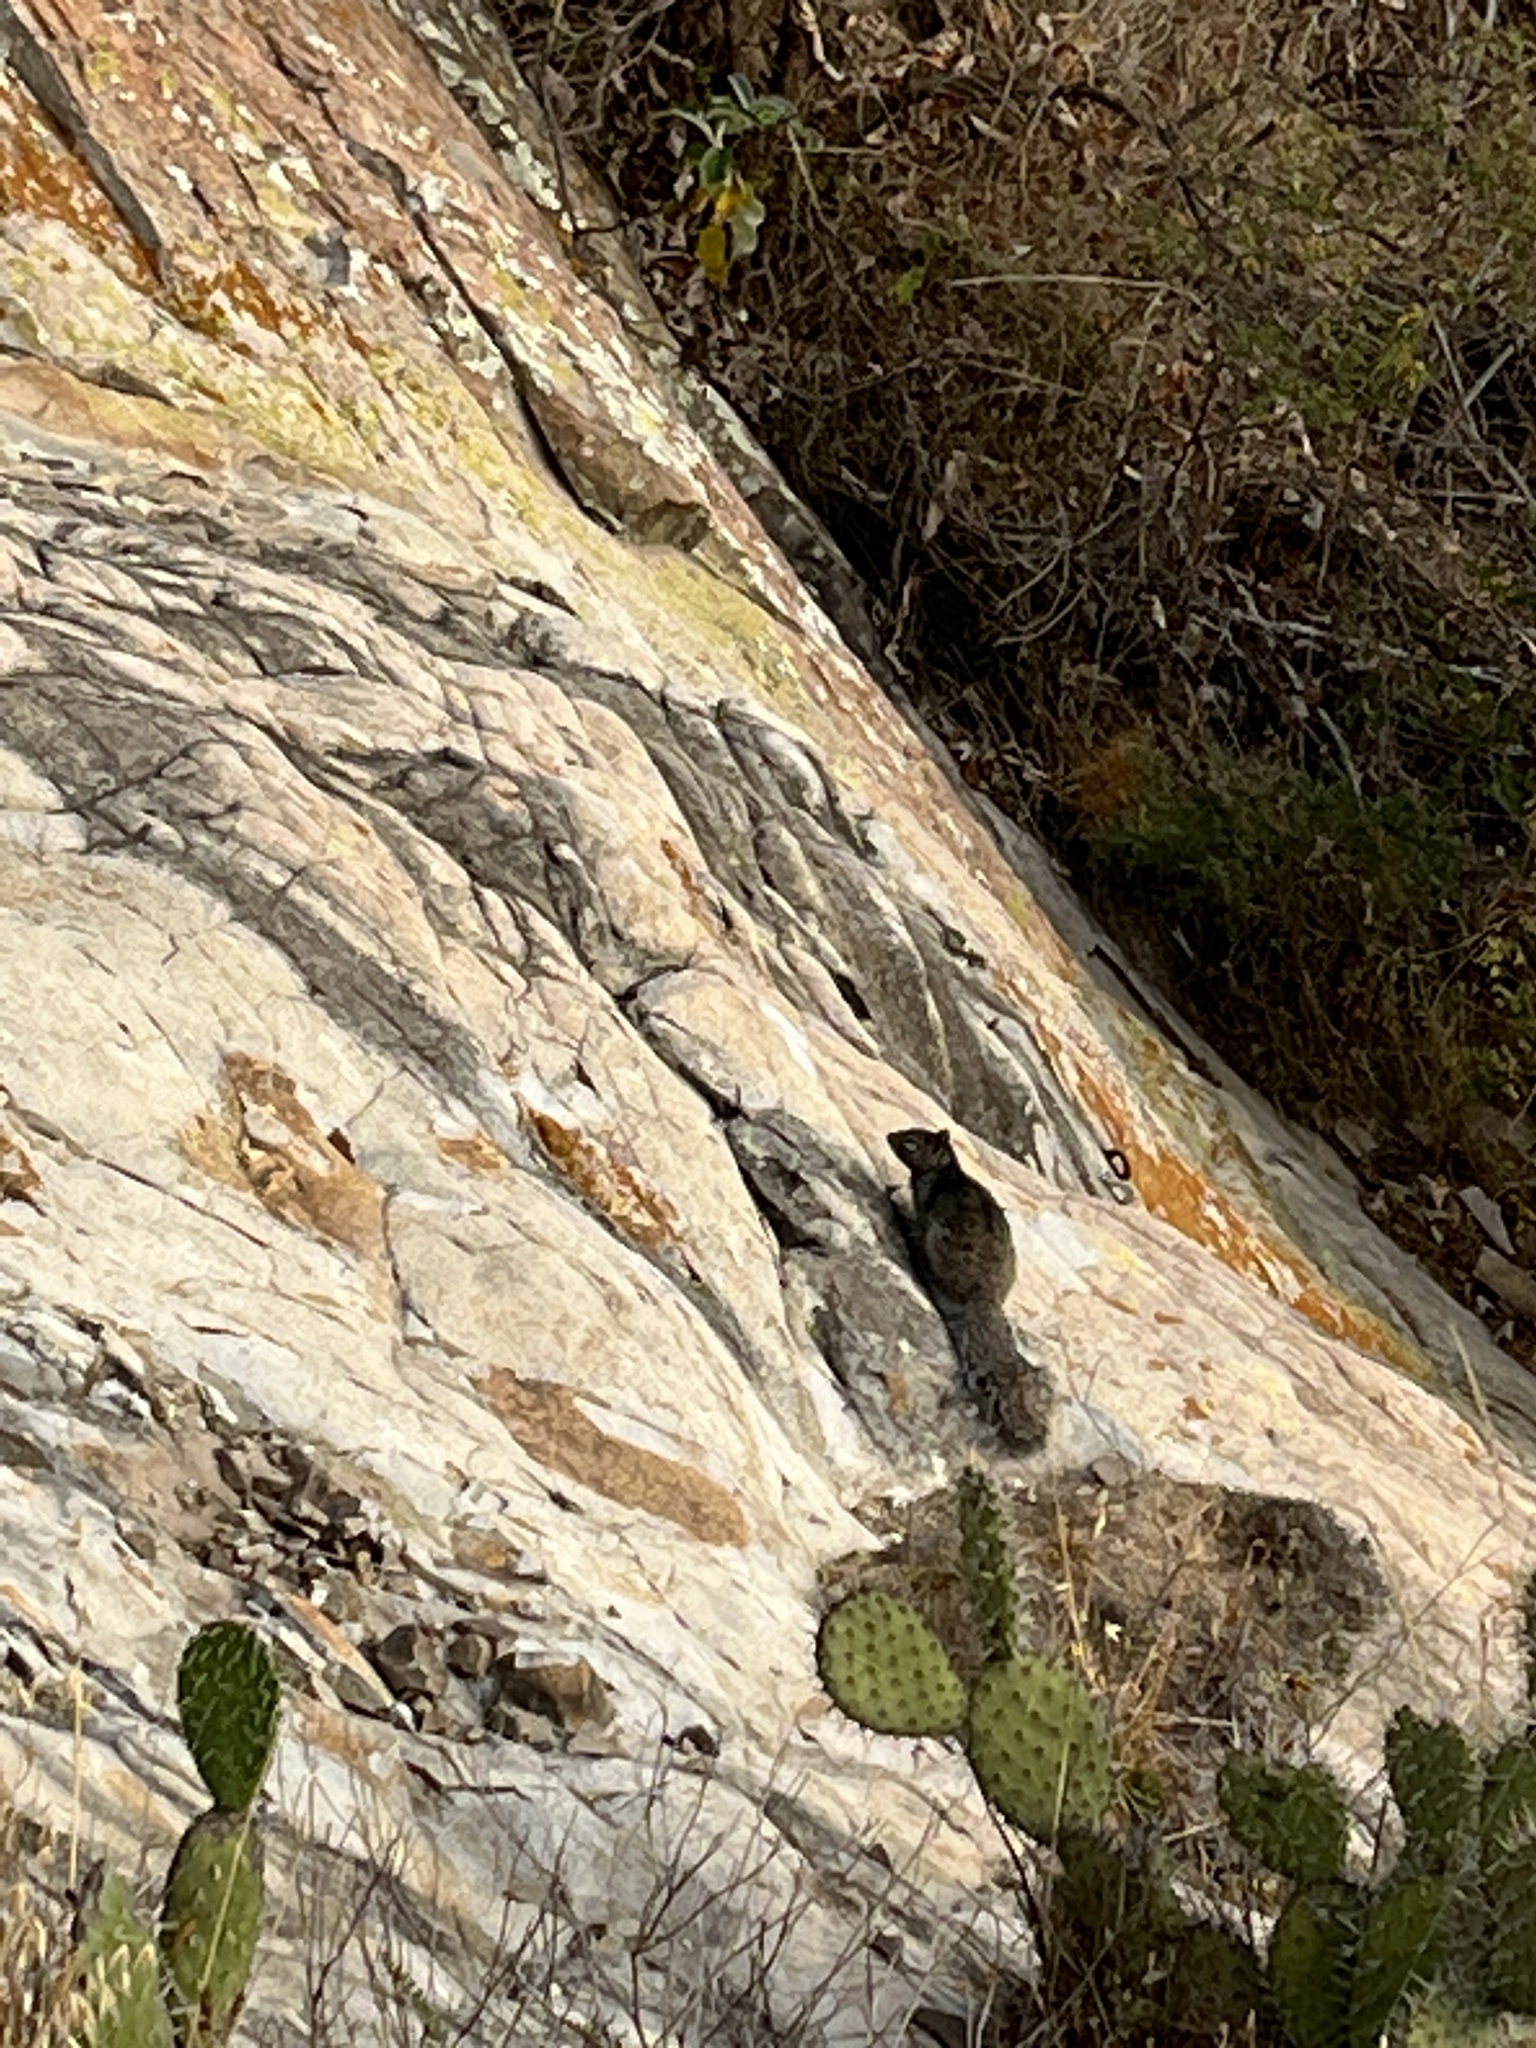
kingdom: Animalia
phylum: Chordata
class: Mammalia
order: Rodentia
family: Sciuridae
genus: Otospermophilus
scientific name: Otospermophilus variegatus
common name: Rock squirrel
